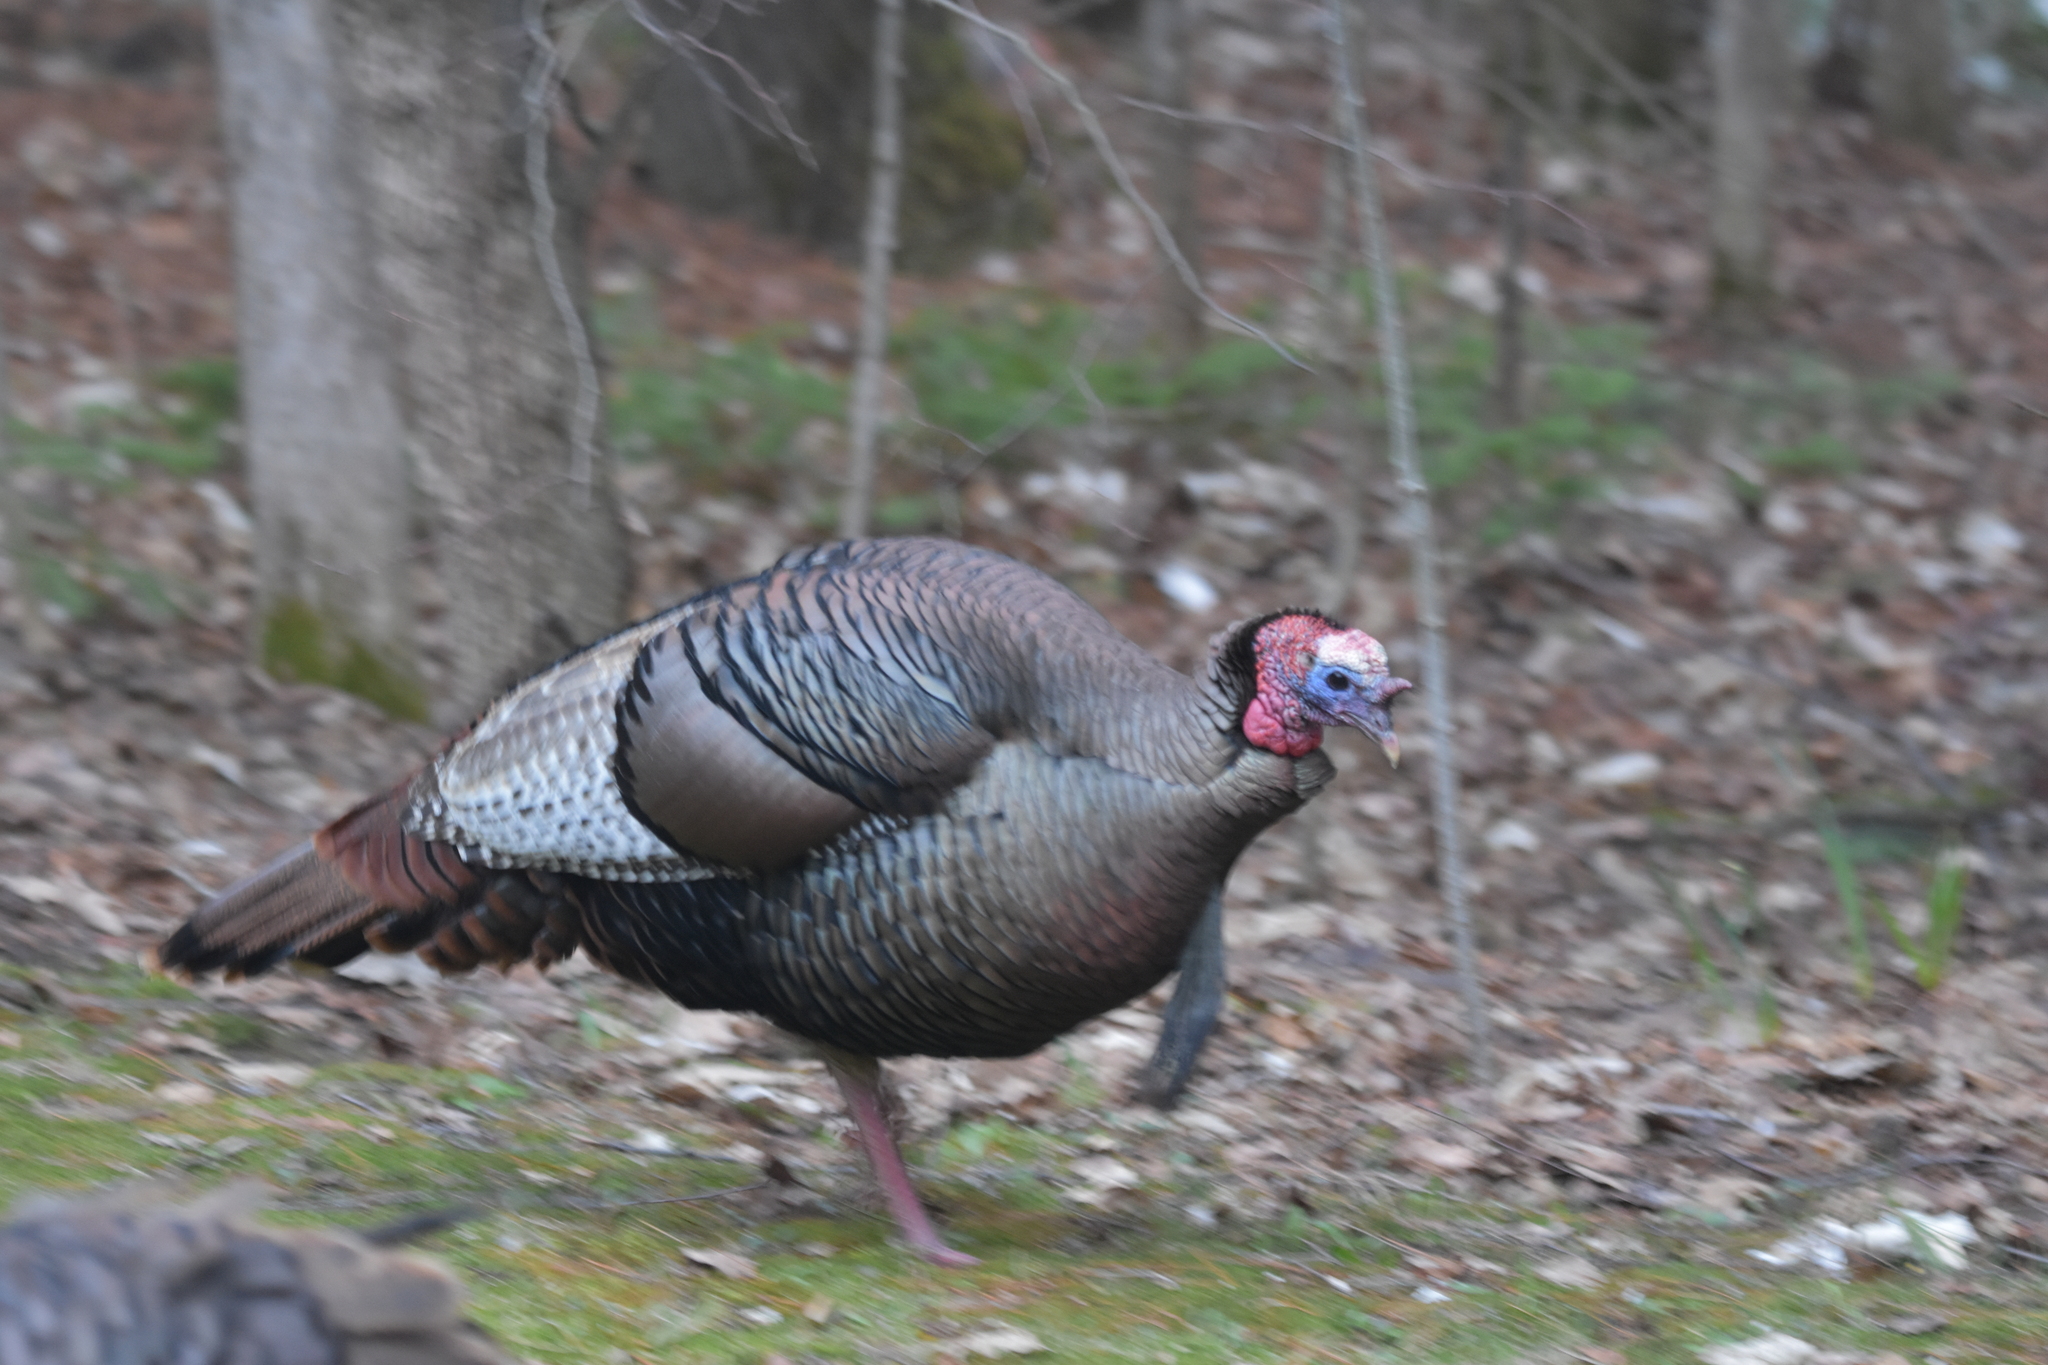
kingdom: Animalia
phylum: Chordata
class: Aves
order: Galliformes
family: Phasianidae
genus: Meleagris
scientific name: Meleagris gallopavo
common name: Wild turkey
